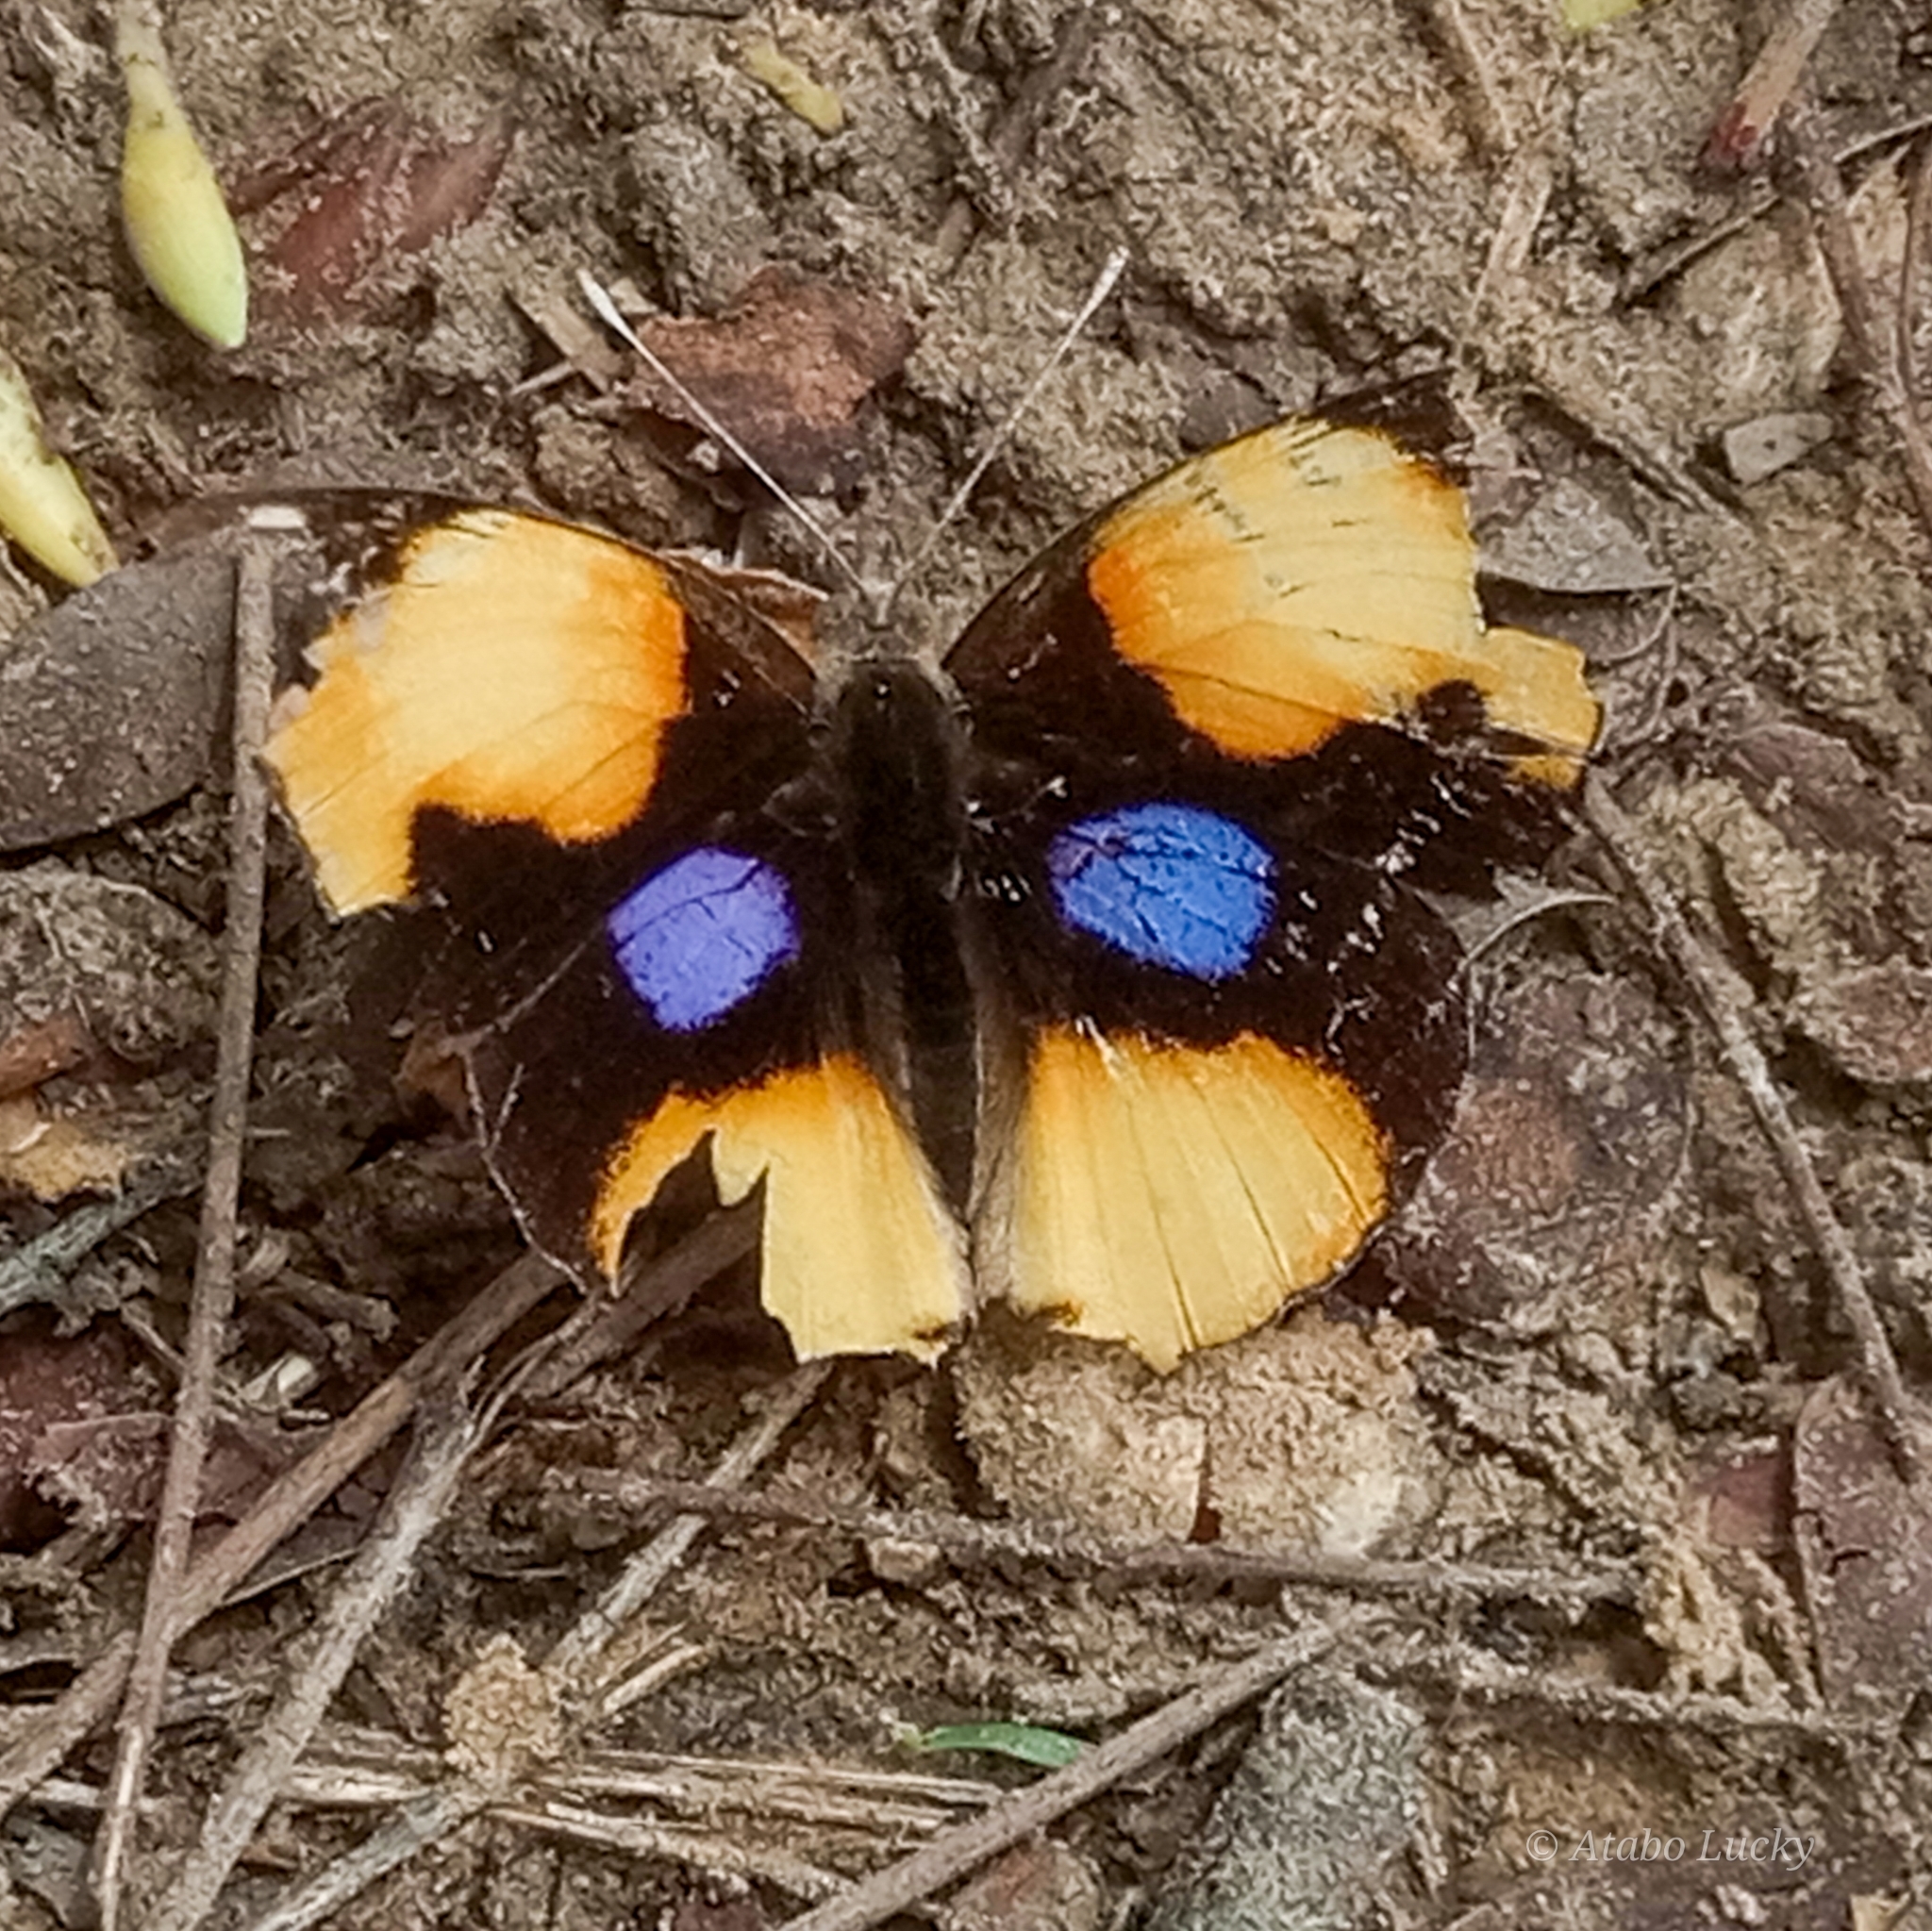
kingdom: Animalia
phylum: Arthropoda
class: Insecta
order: Lepidoptera
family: Nymphalidae
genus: Junonia
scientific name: Junonia hierta
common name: Yellow pansy
